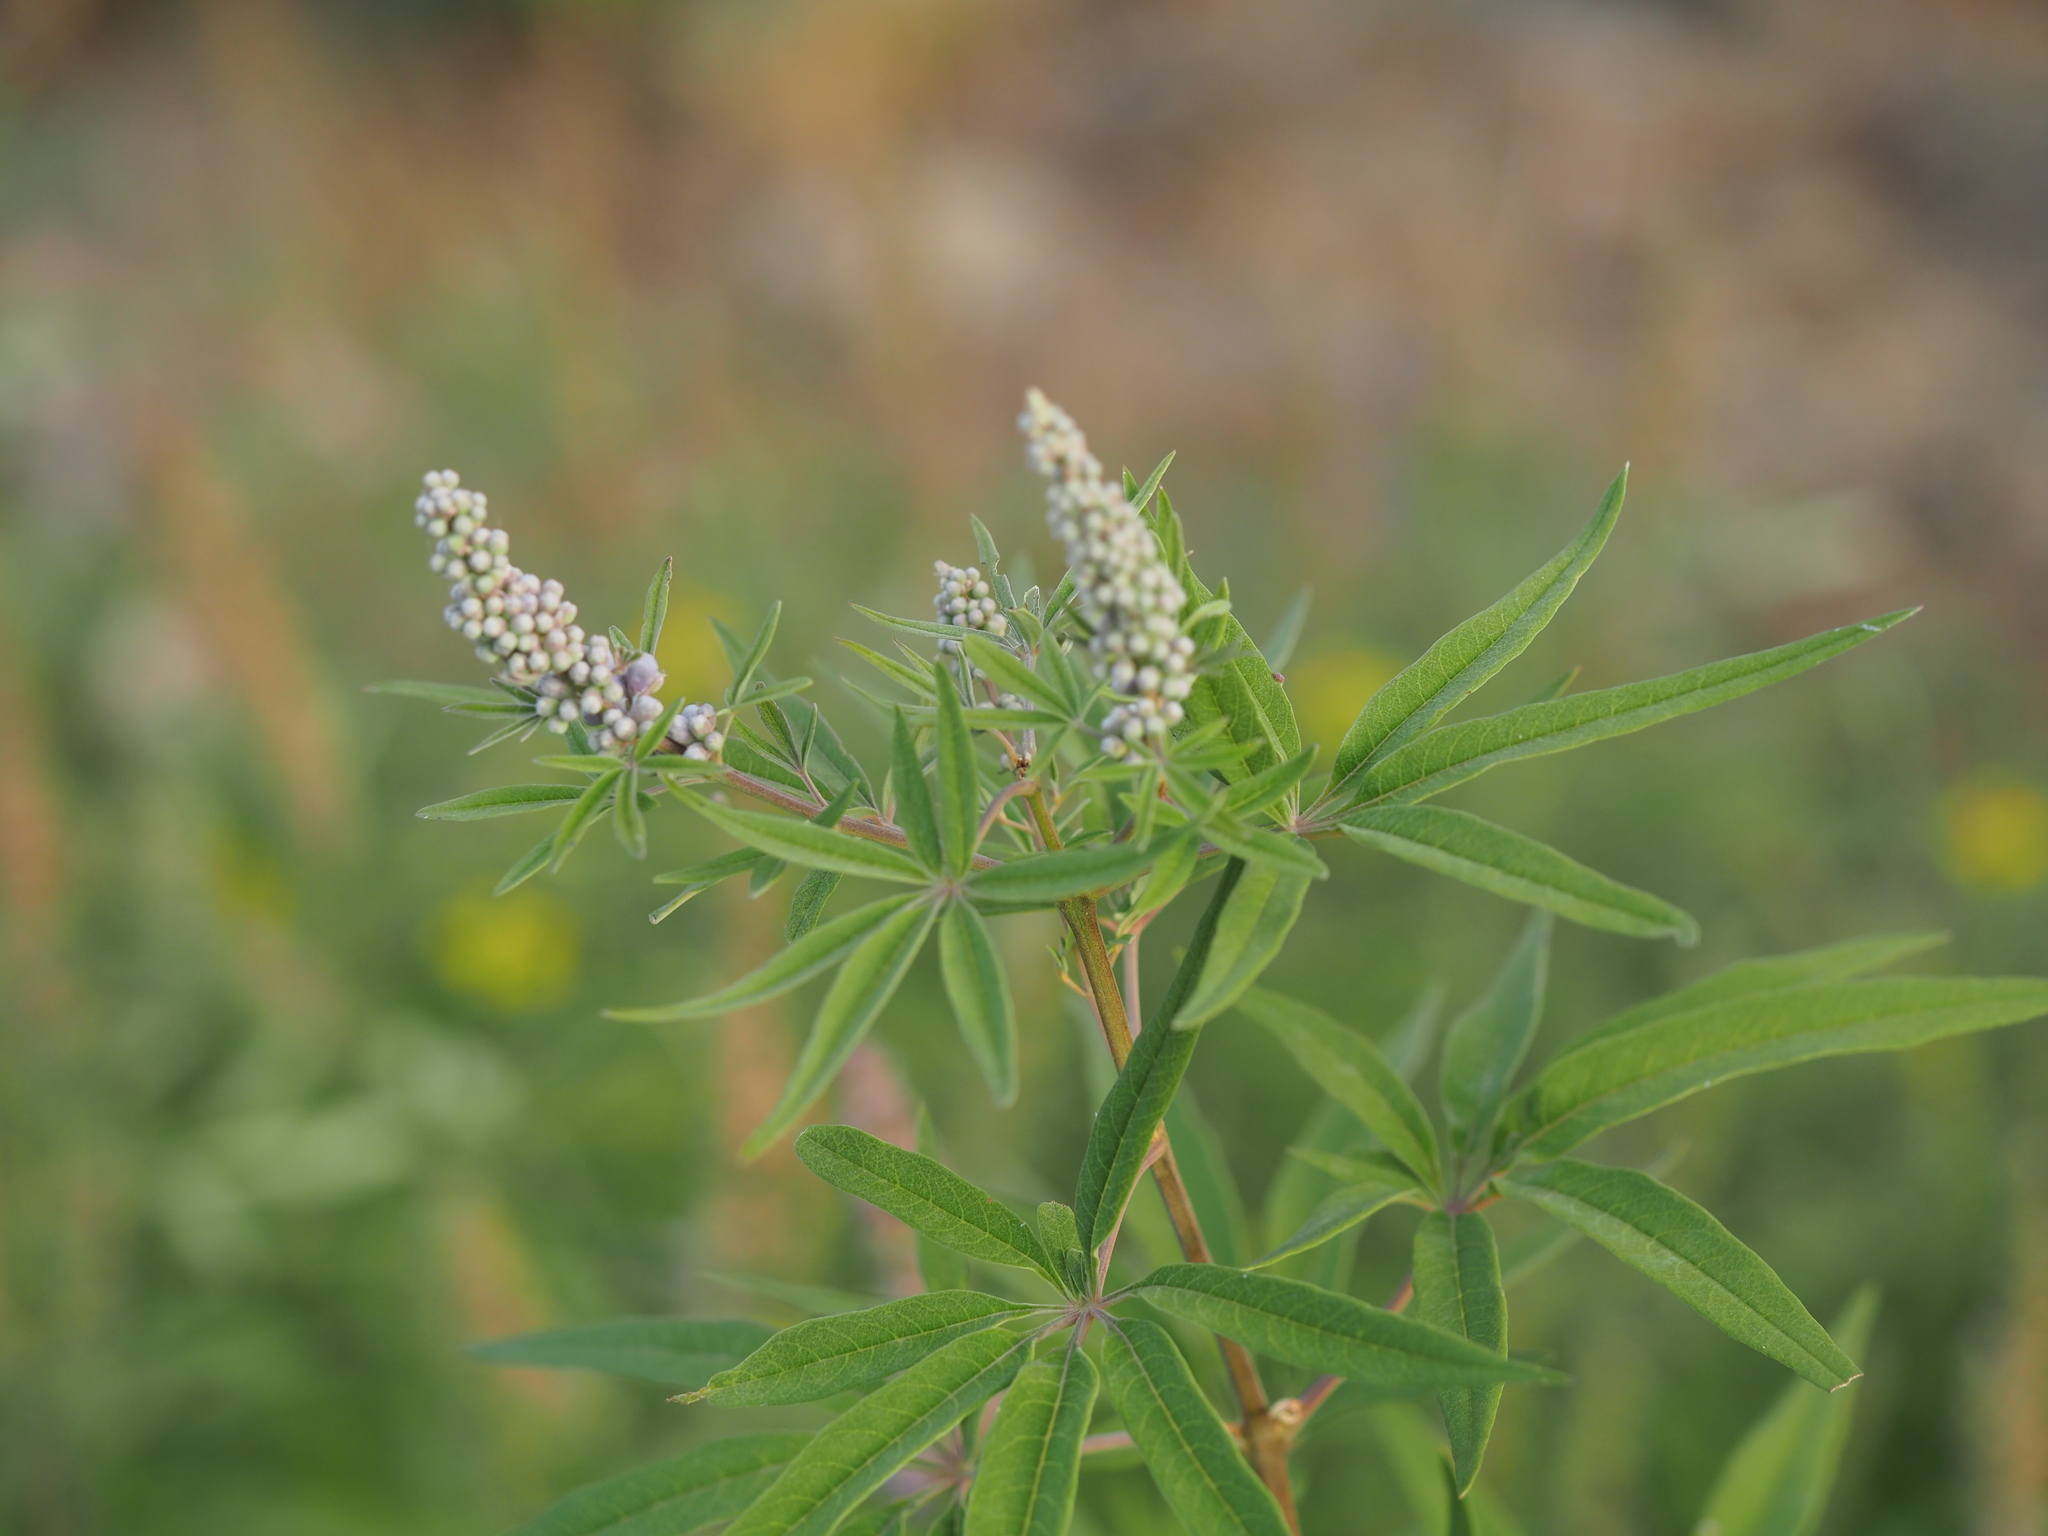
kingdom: Plantae
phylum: Tracheophyta
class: Magnoliopsida
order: Lamiales
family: Lamiaceae
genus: Vitex
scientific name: Vitex agnus-castus
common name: Chasteberry
